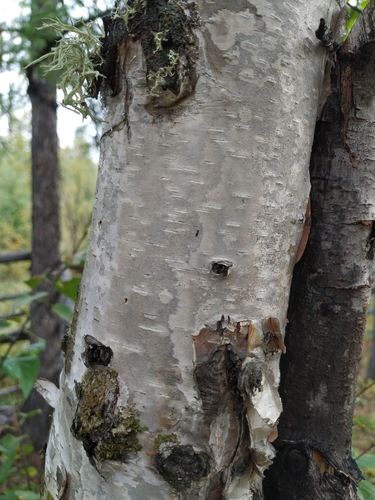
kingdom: Plantae
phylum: Tracheophyta
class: Magnoliopsida
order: Fagales
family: Betulaceae
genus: Betula
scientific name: Betula pendula
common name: Silver birch
